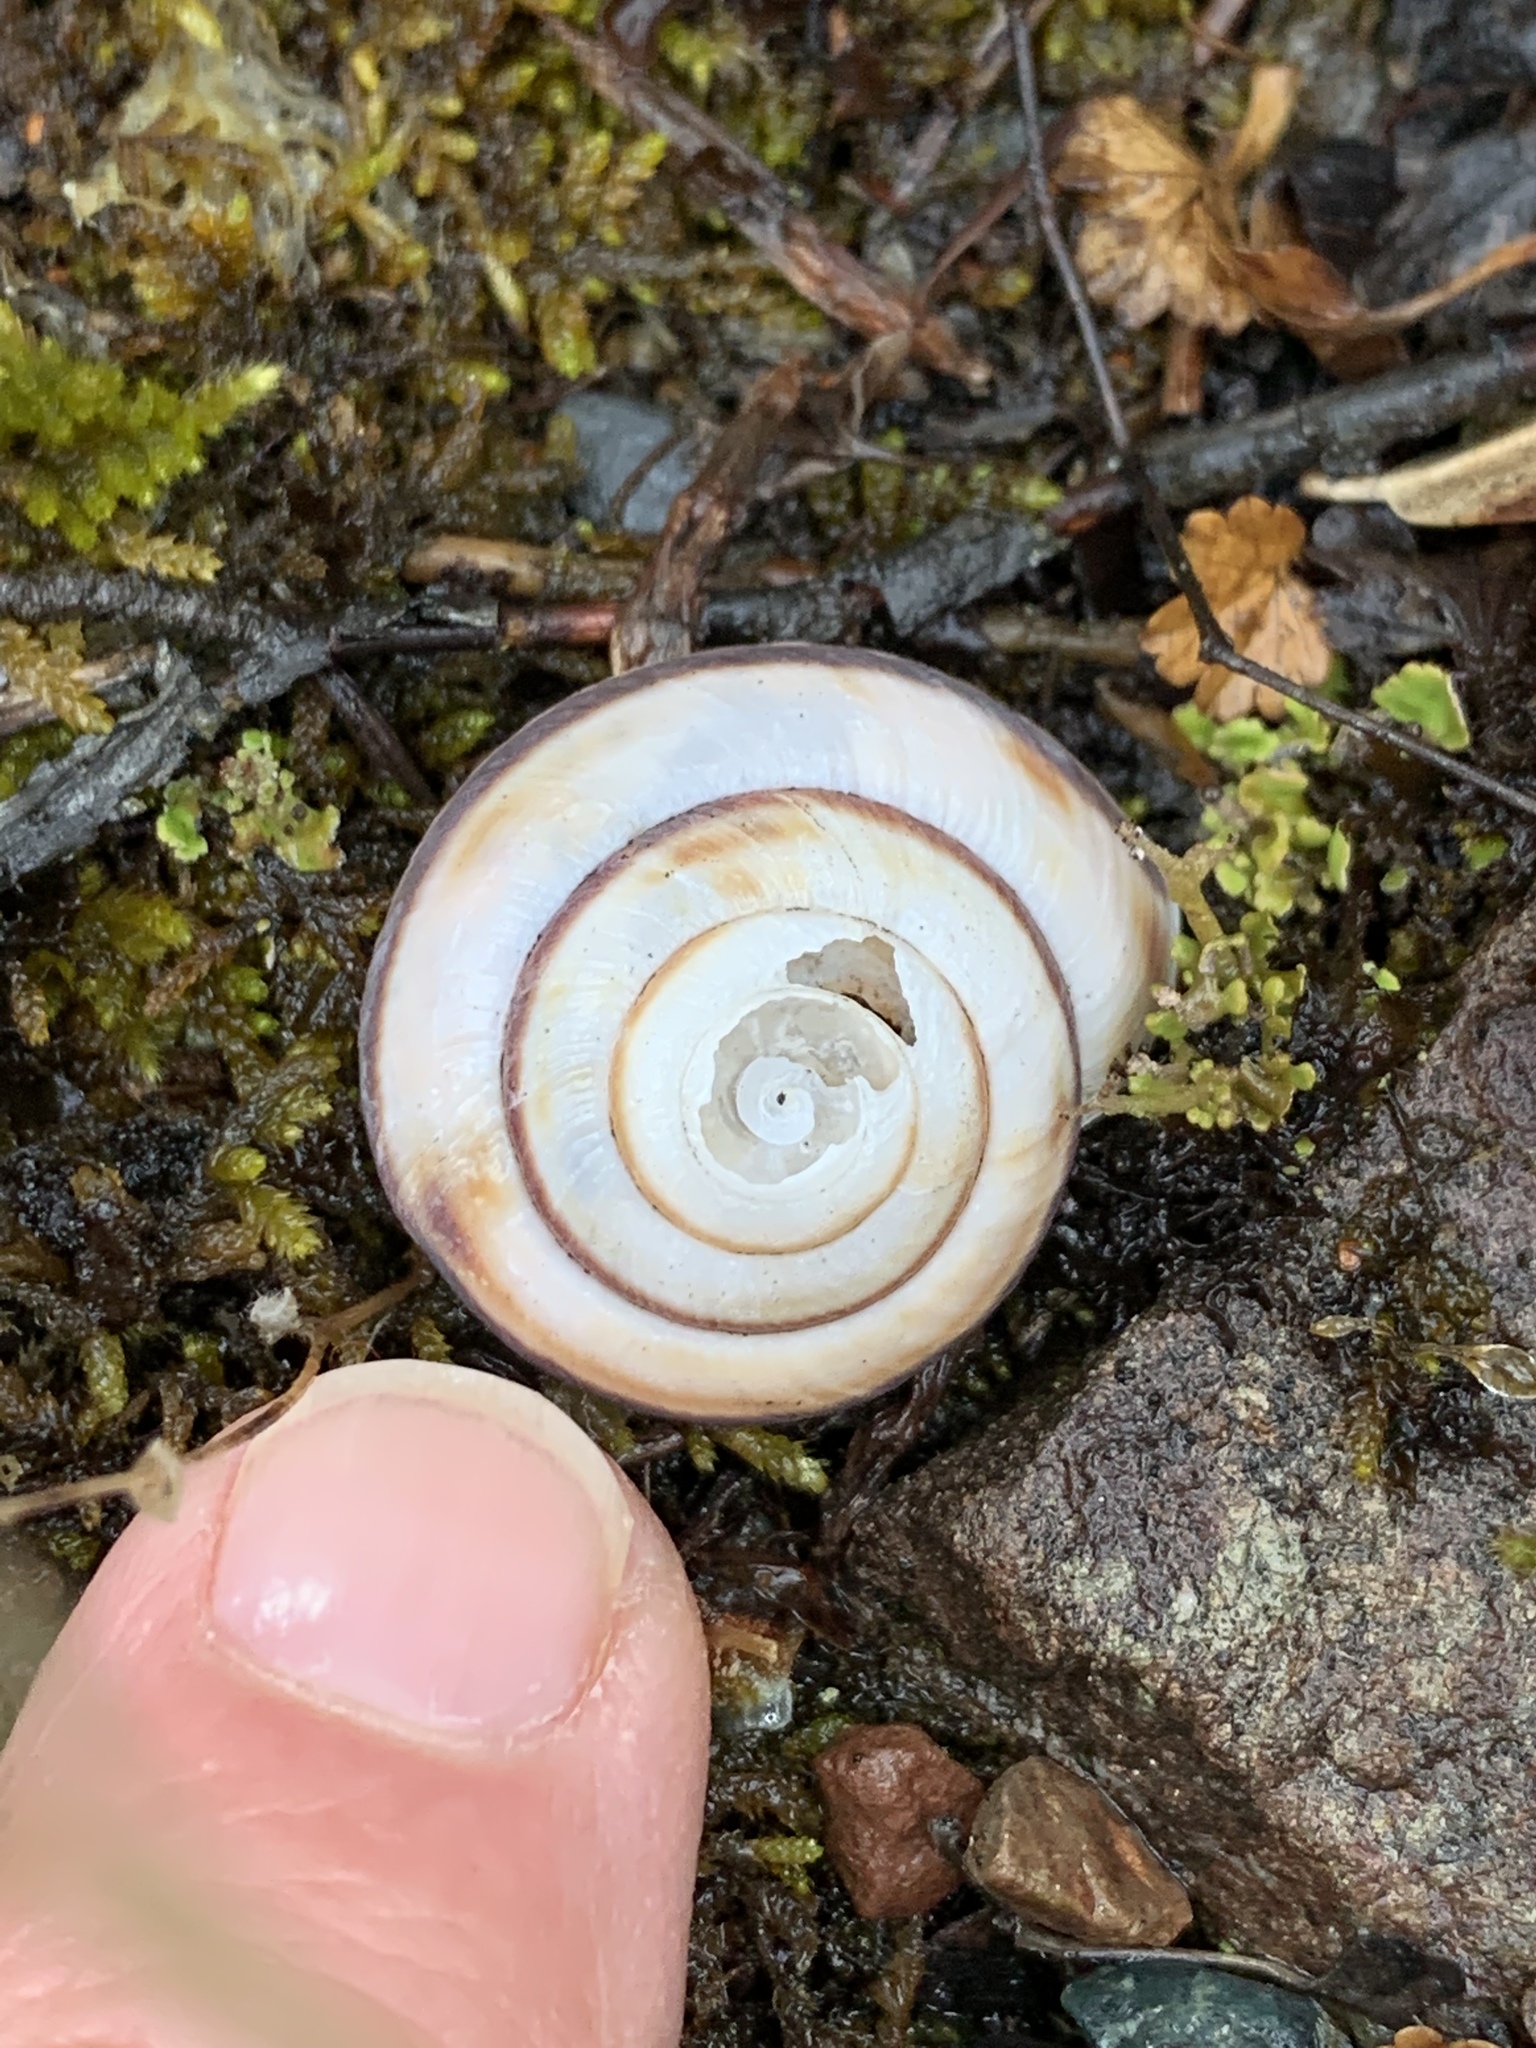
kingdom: Animalia
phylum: Mollusca
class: Gastropoda
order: Stylommatophora
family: Xanthonychidae
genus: Monadenia
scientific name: Monadenia fidelis
